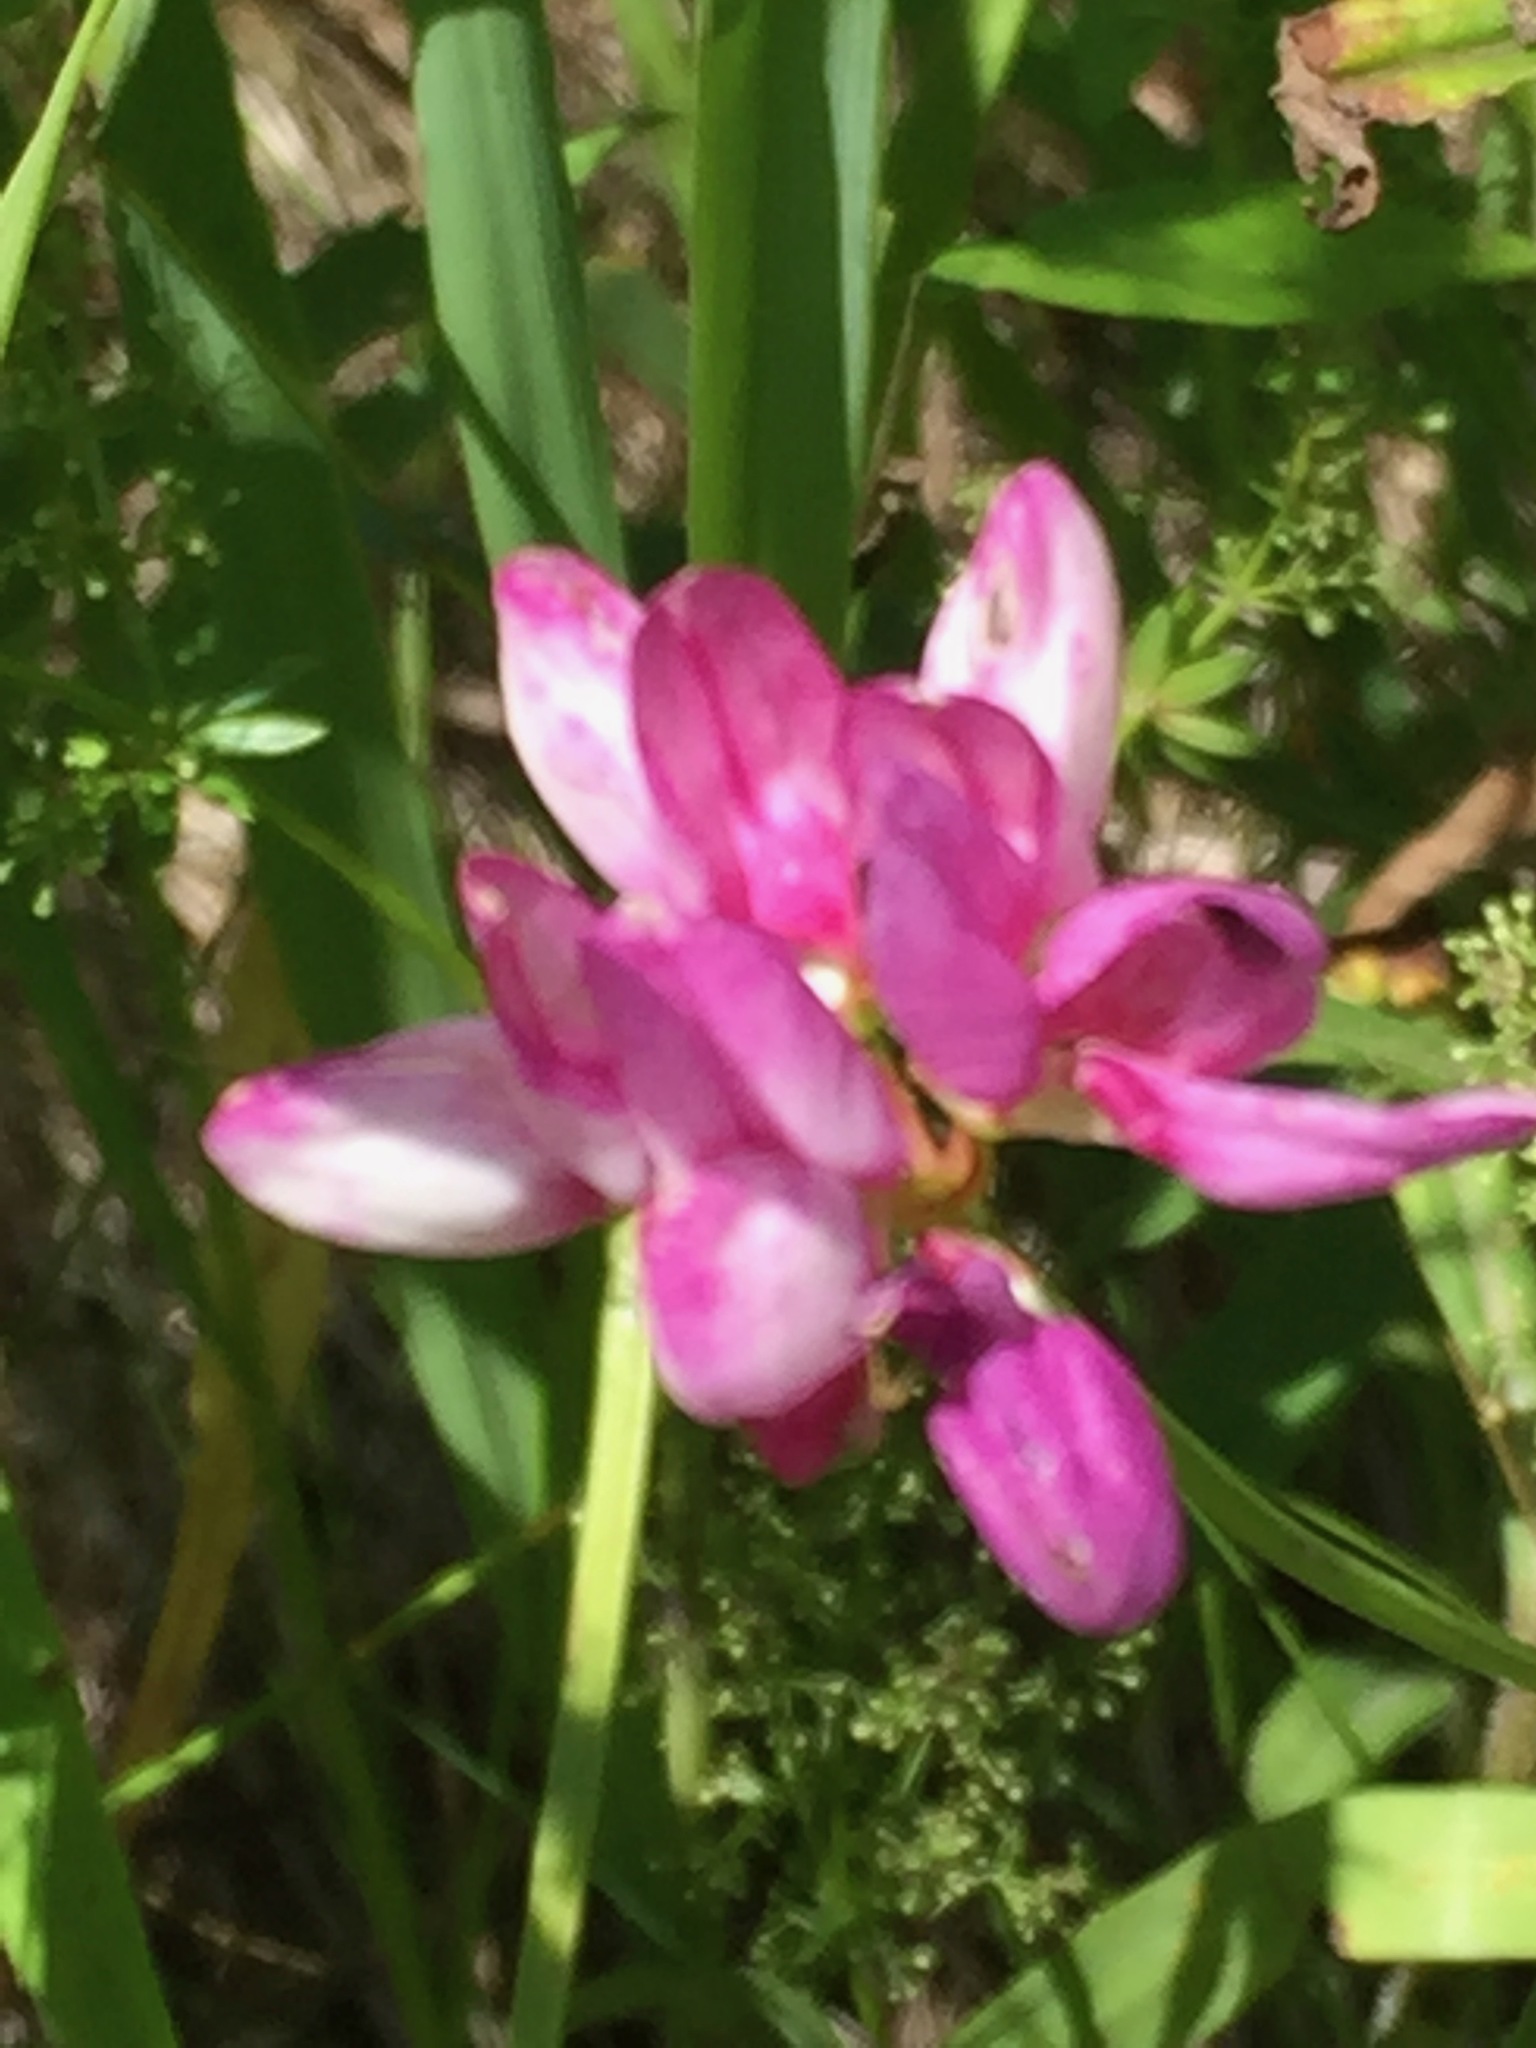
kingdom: Plantae
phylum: Tracheophyta
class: Magnoliopsida
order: Fabales
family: Fabaceae
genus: Coronilla
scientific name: Coronilla varia
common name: Crownvetch
